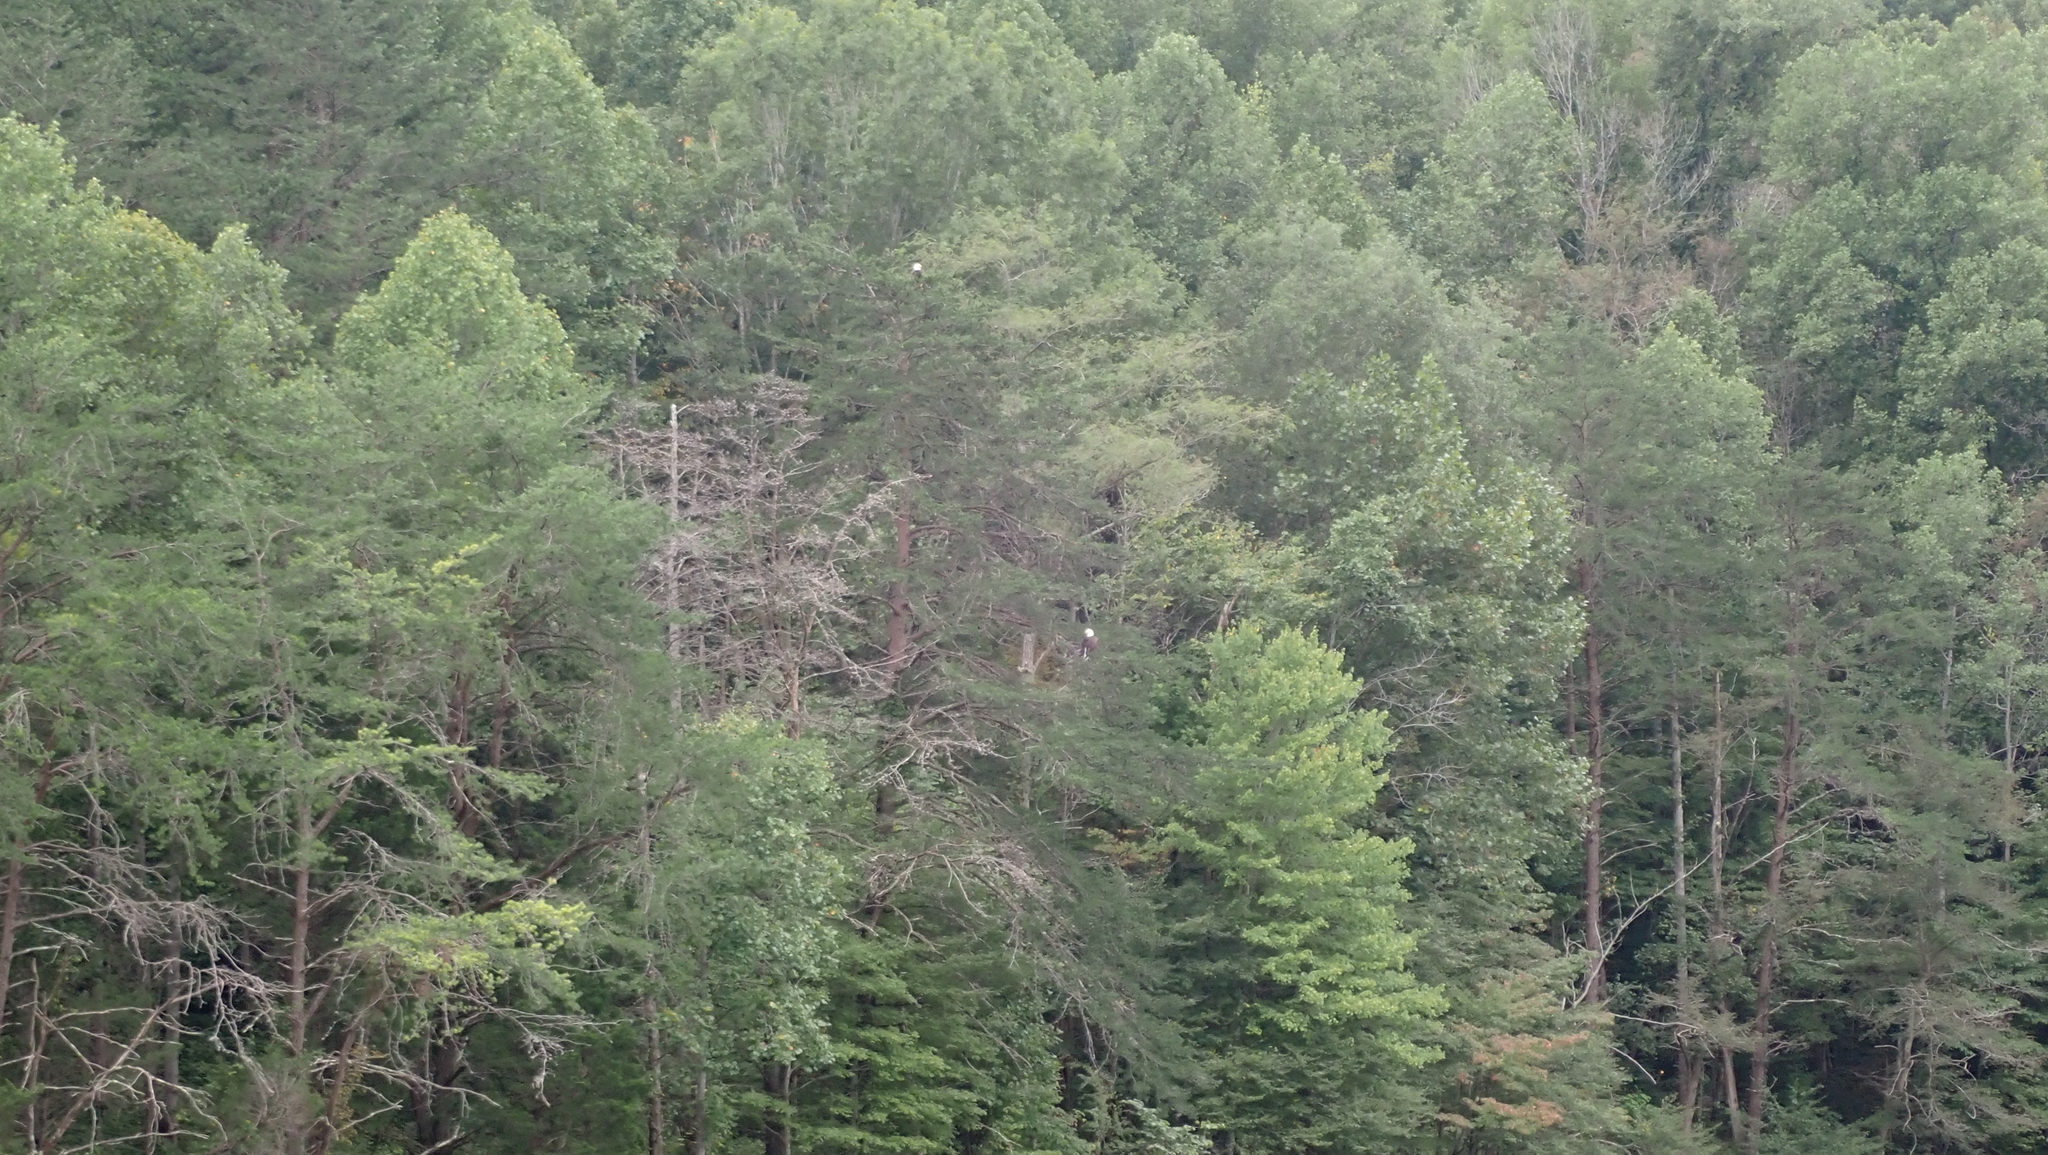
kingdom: Animalia
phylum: Chordata
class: Aves
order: Accipitriformes
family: Accipitridae
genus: Haliaeetus
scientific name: Haliaeetus leucocephalus
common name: Bald eagle
